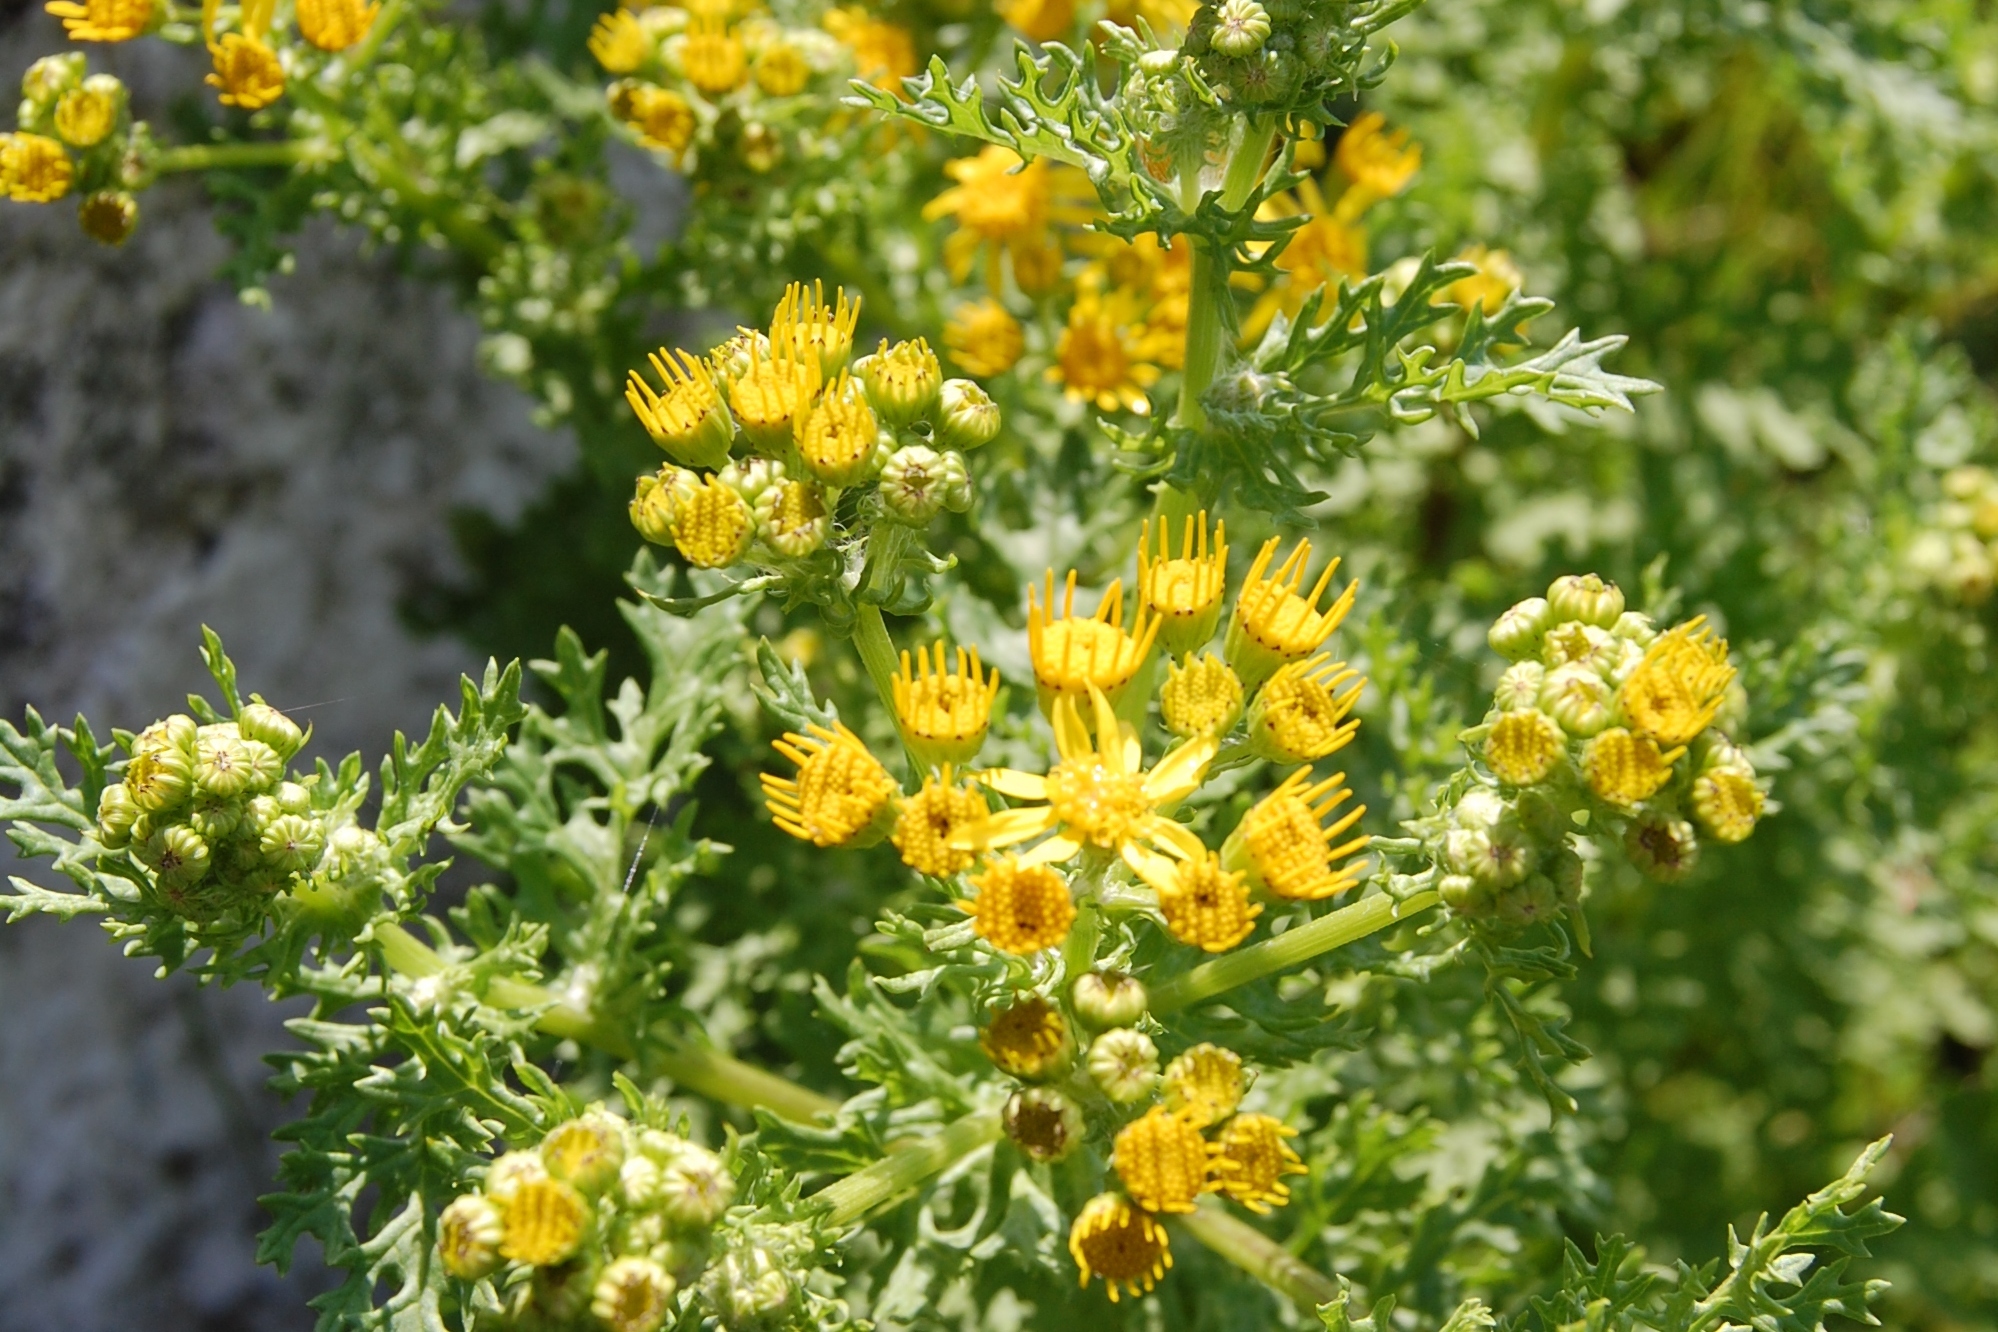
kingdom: Plantae
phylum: Tracheophyta
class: Magnoliopsida
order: Asterales
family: Asteraceae
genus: Jacobaea
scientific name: Jacobaea vulgaris
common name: Stinking willie
